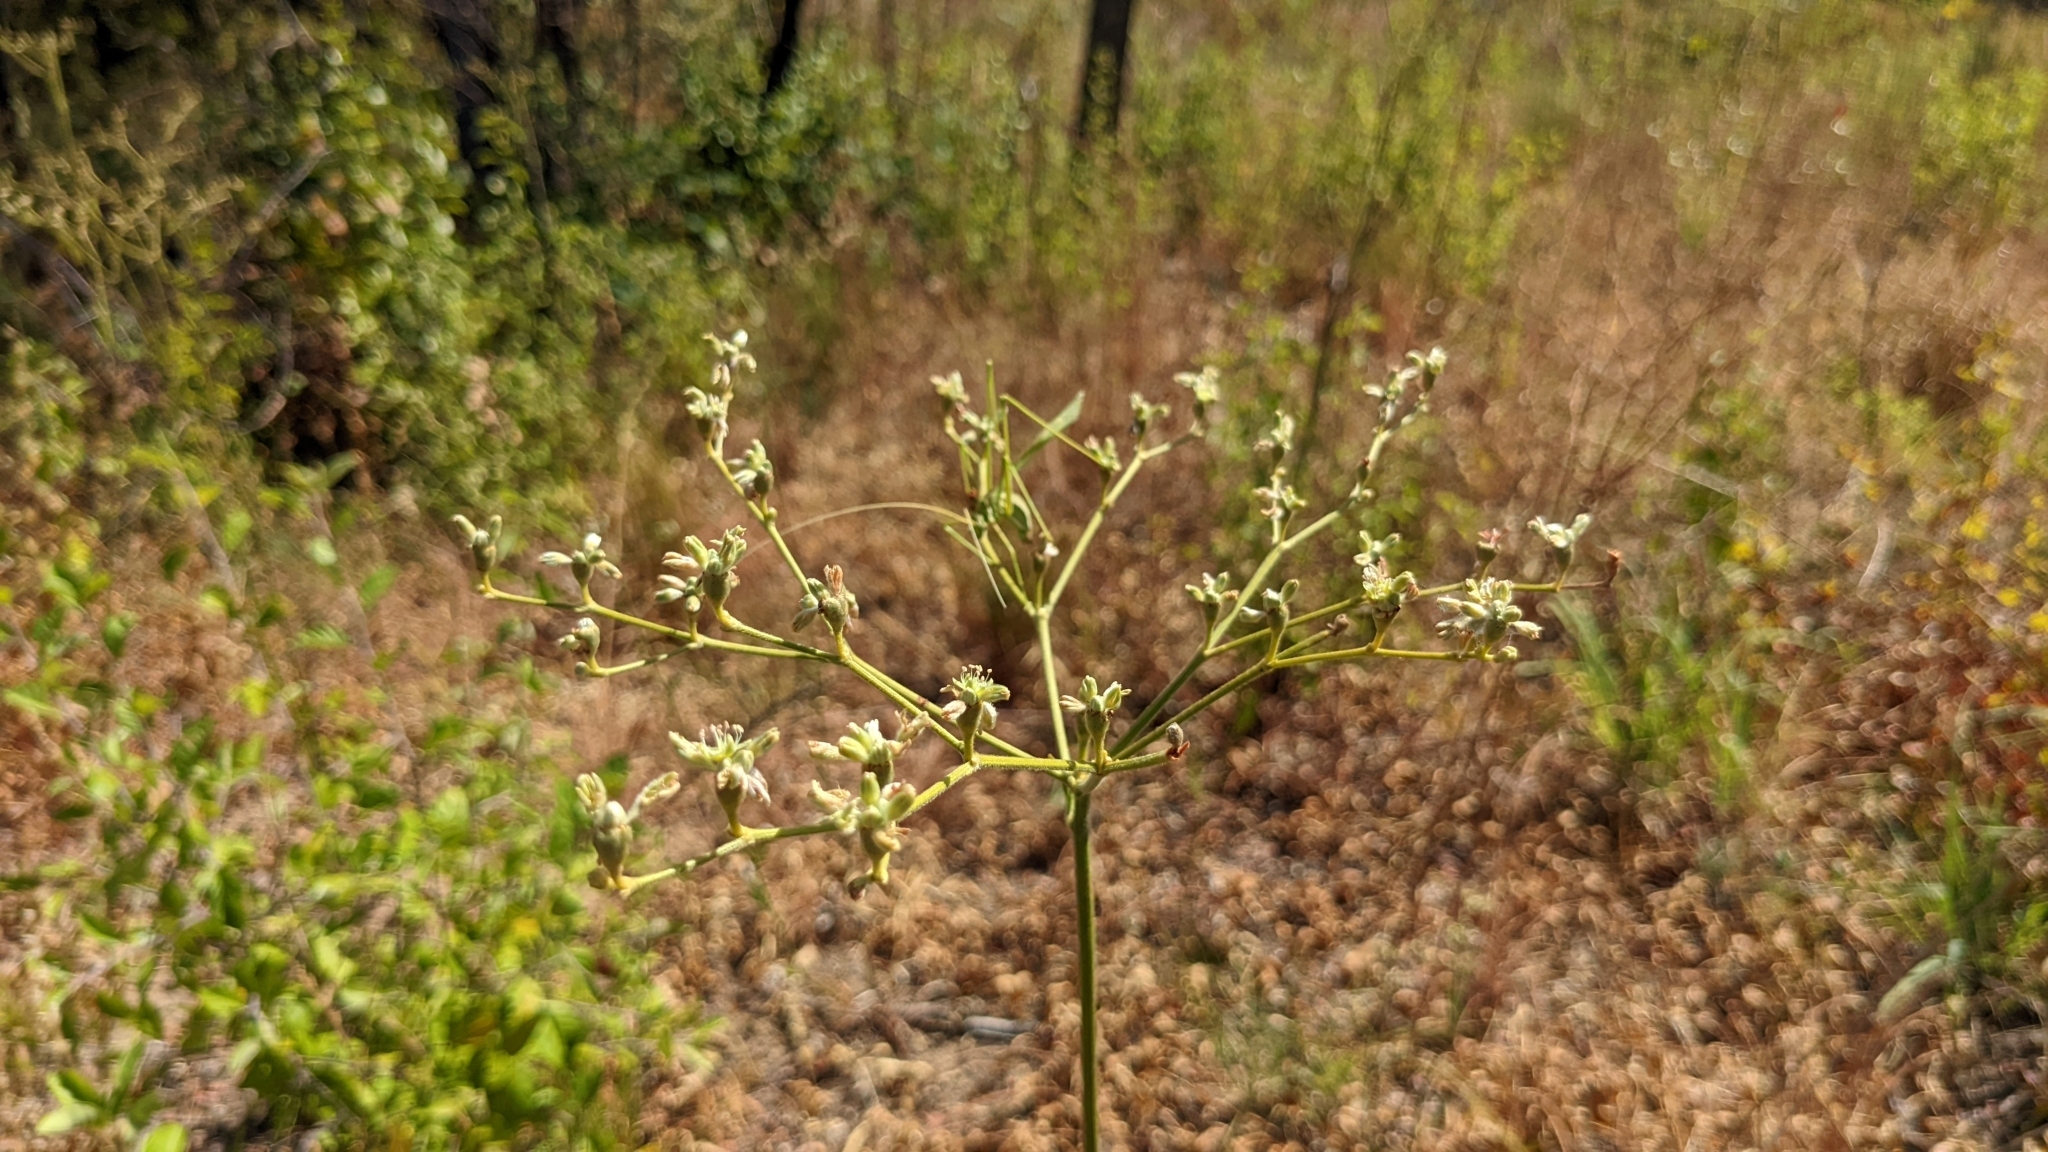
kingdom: Plantae
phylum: Tracheophyta
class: Magnoliopsida
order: Caryophyllales
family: Polygonaceae
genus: Eriogonum
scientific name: Eriogonum longifolium
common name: Longleaf wild buckwheat
